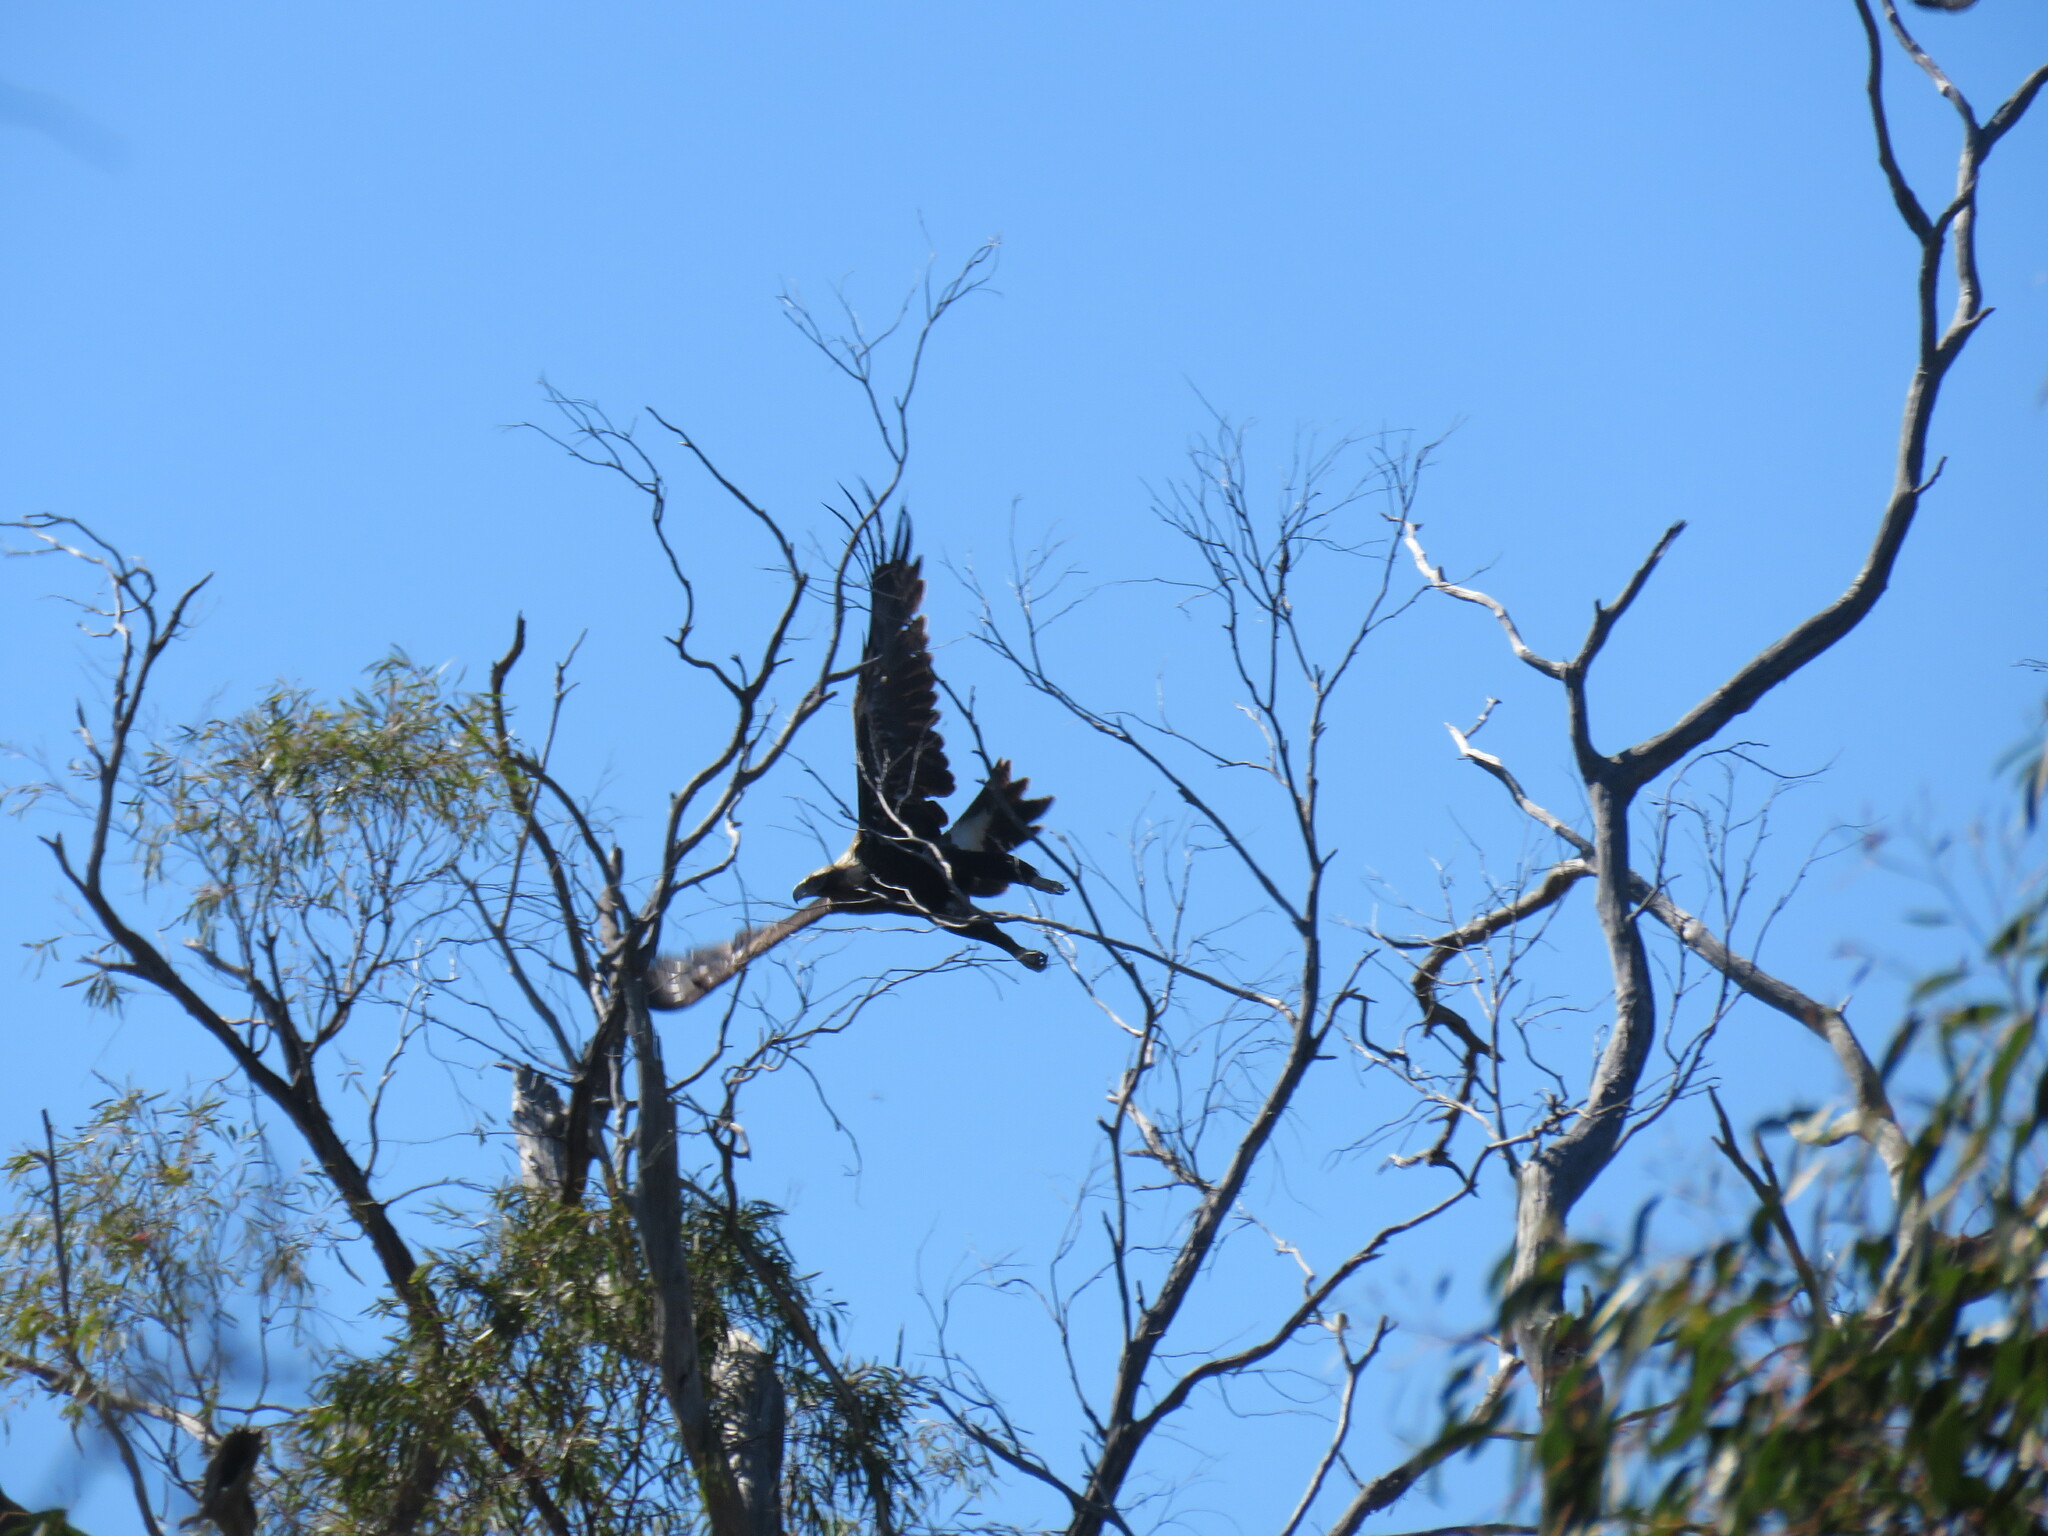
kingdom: Animalia
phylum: Chordata
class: Aves
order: Accipitriformes
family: Accipitridae
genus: Aquila
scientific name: Aquila audax
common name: Wedge-tailed eagle
